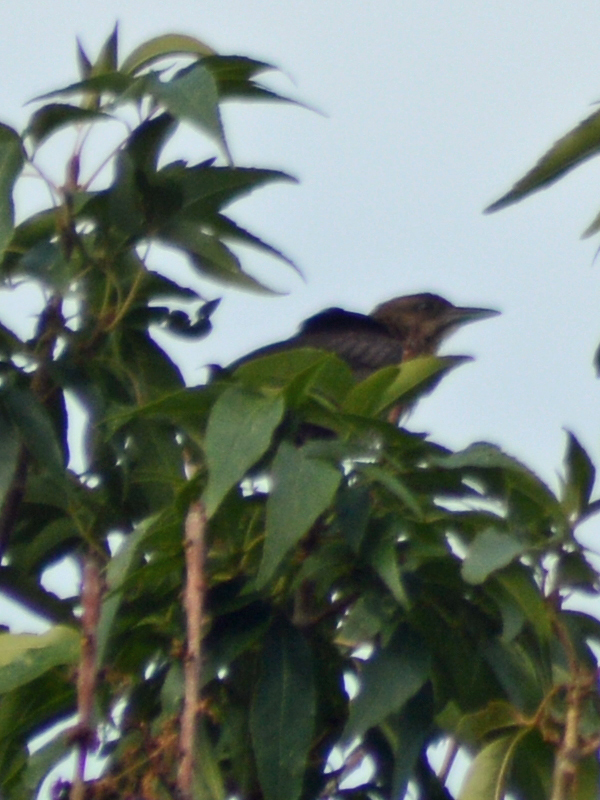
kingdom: Animalia
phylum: Chordata
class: Aves
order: Passeriformes
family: Icteridae
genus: Quiscalus
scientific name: Quiscalus mexicanus
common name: Great-tailed grackle
